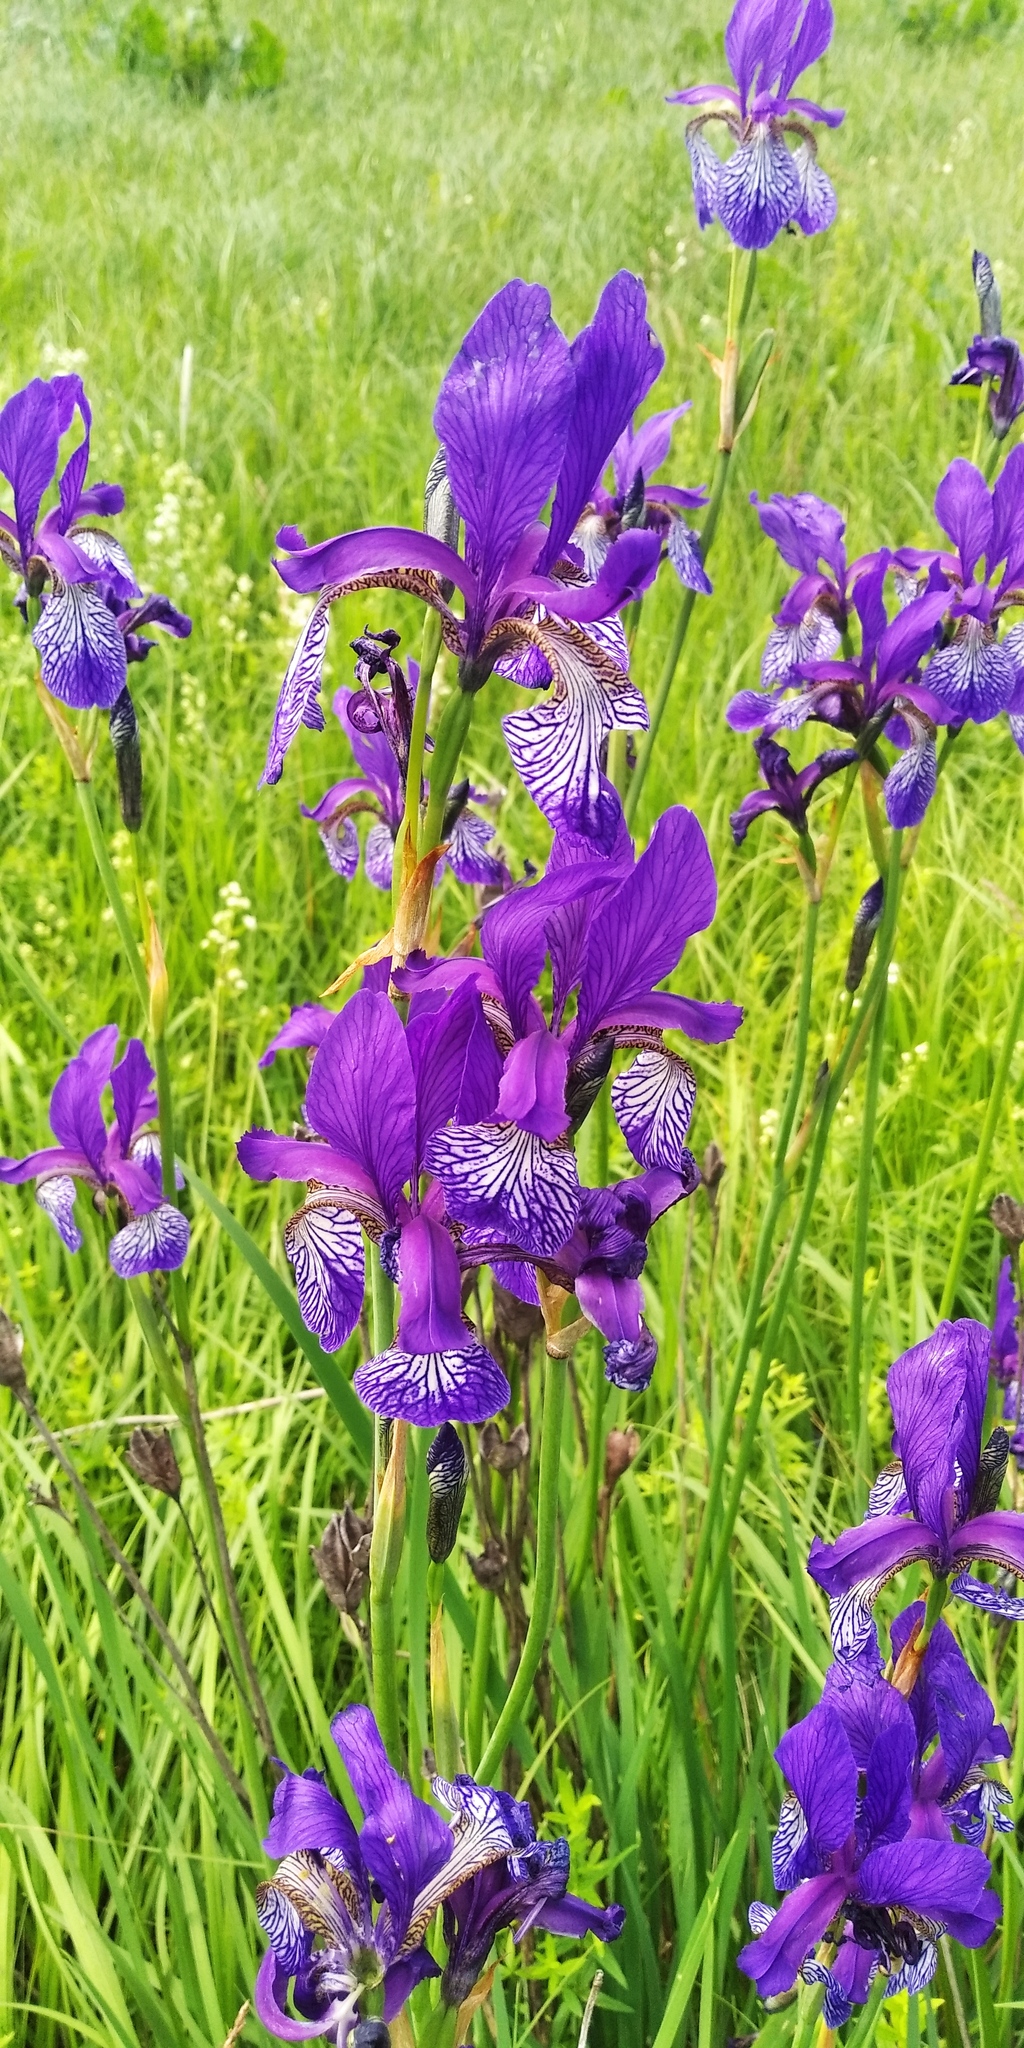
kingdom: Plantae
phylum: Tracheophyta
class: Liliopsida
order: Asparagales
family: Iridaceae
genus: Iris
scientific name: Iris sibirica
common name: Siberian iris
